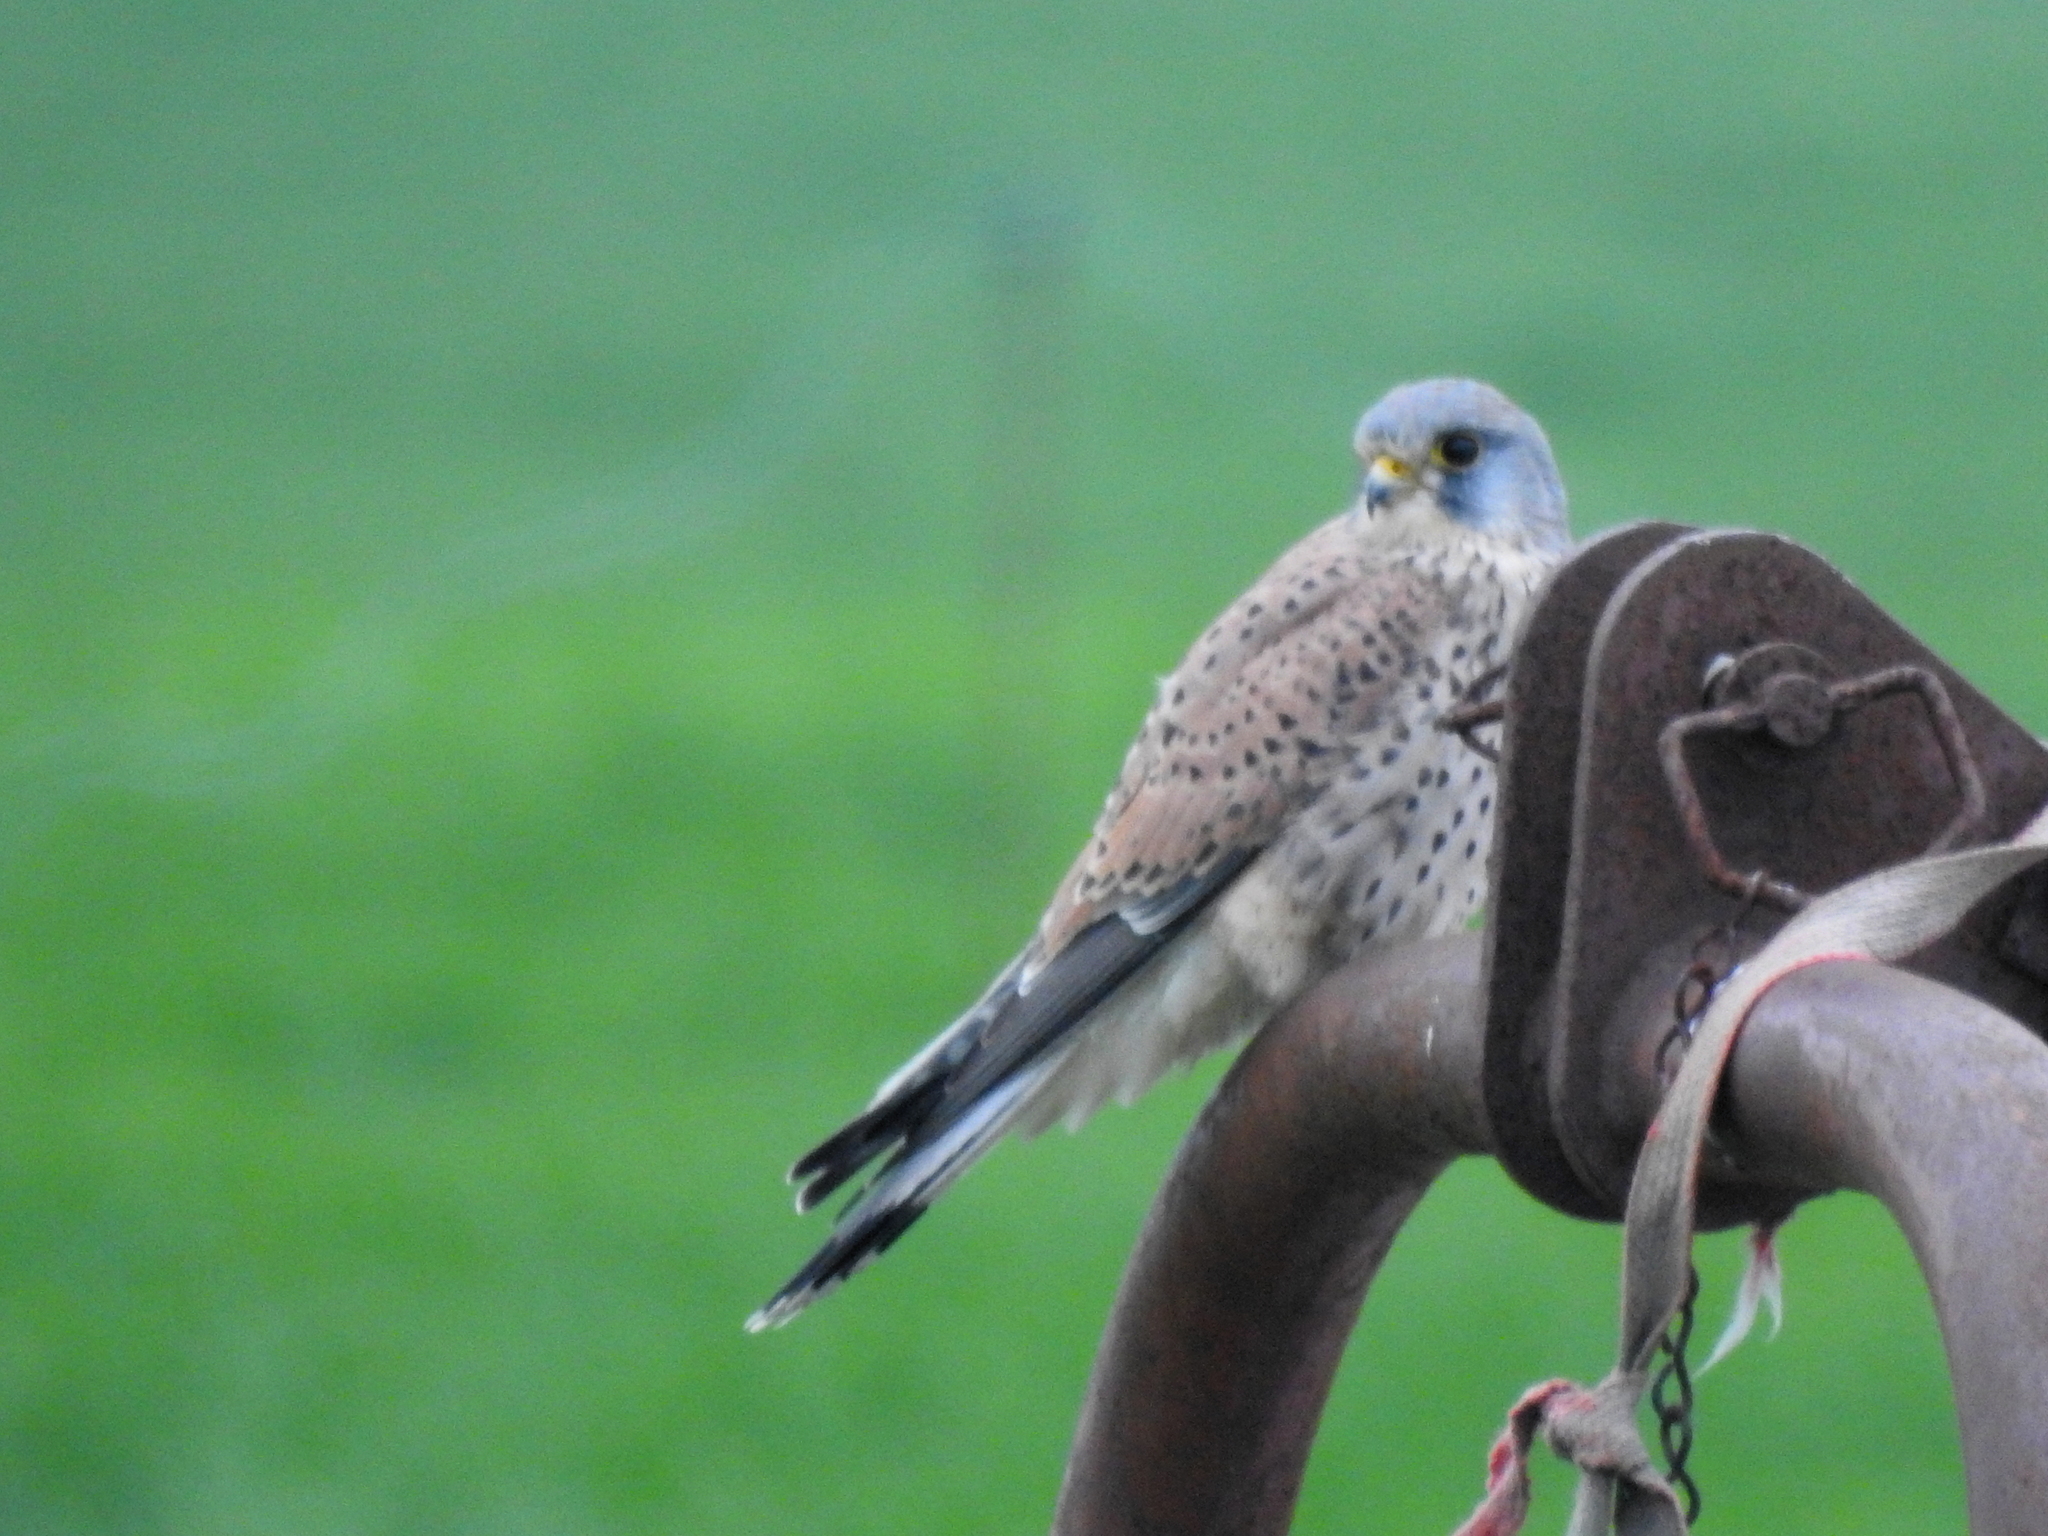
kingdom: Animalia
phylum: Chordata
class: Aves
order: Falconiformes
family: Falconidae
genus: Falco
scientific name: Falco tinnunculus
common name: Common kestrel
